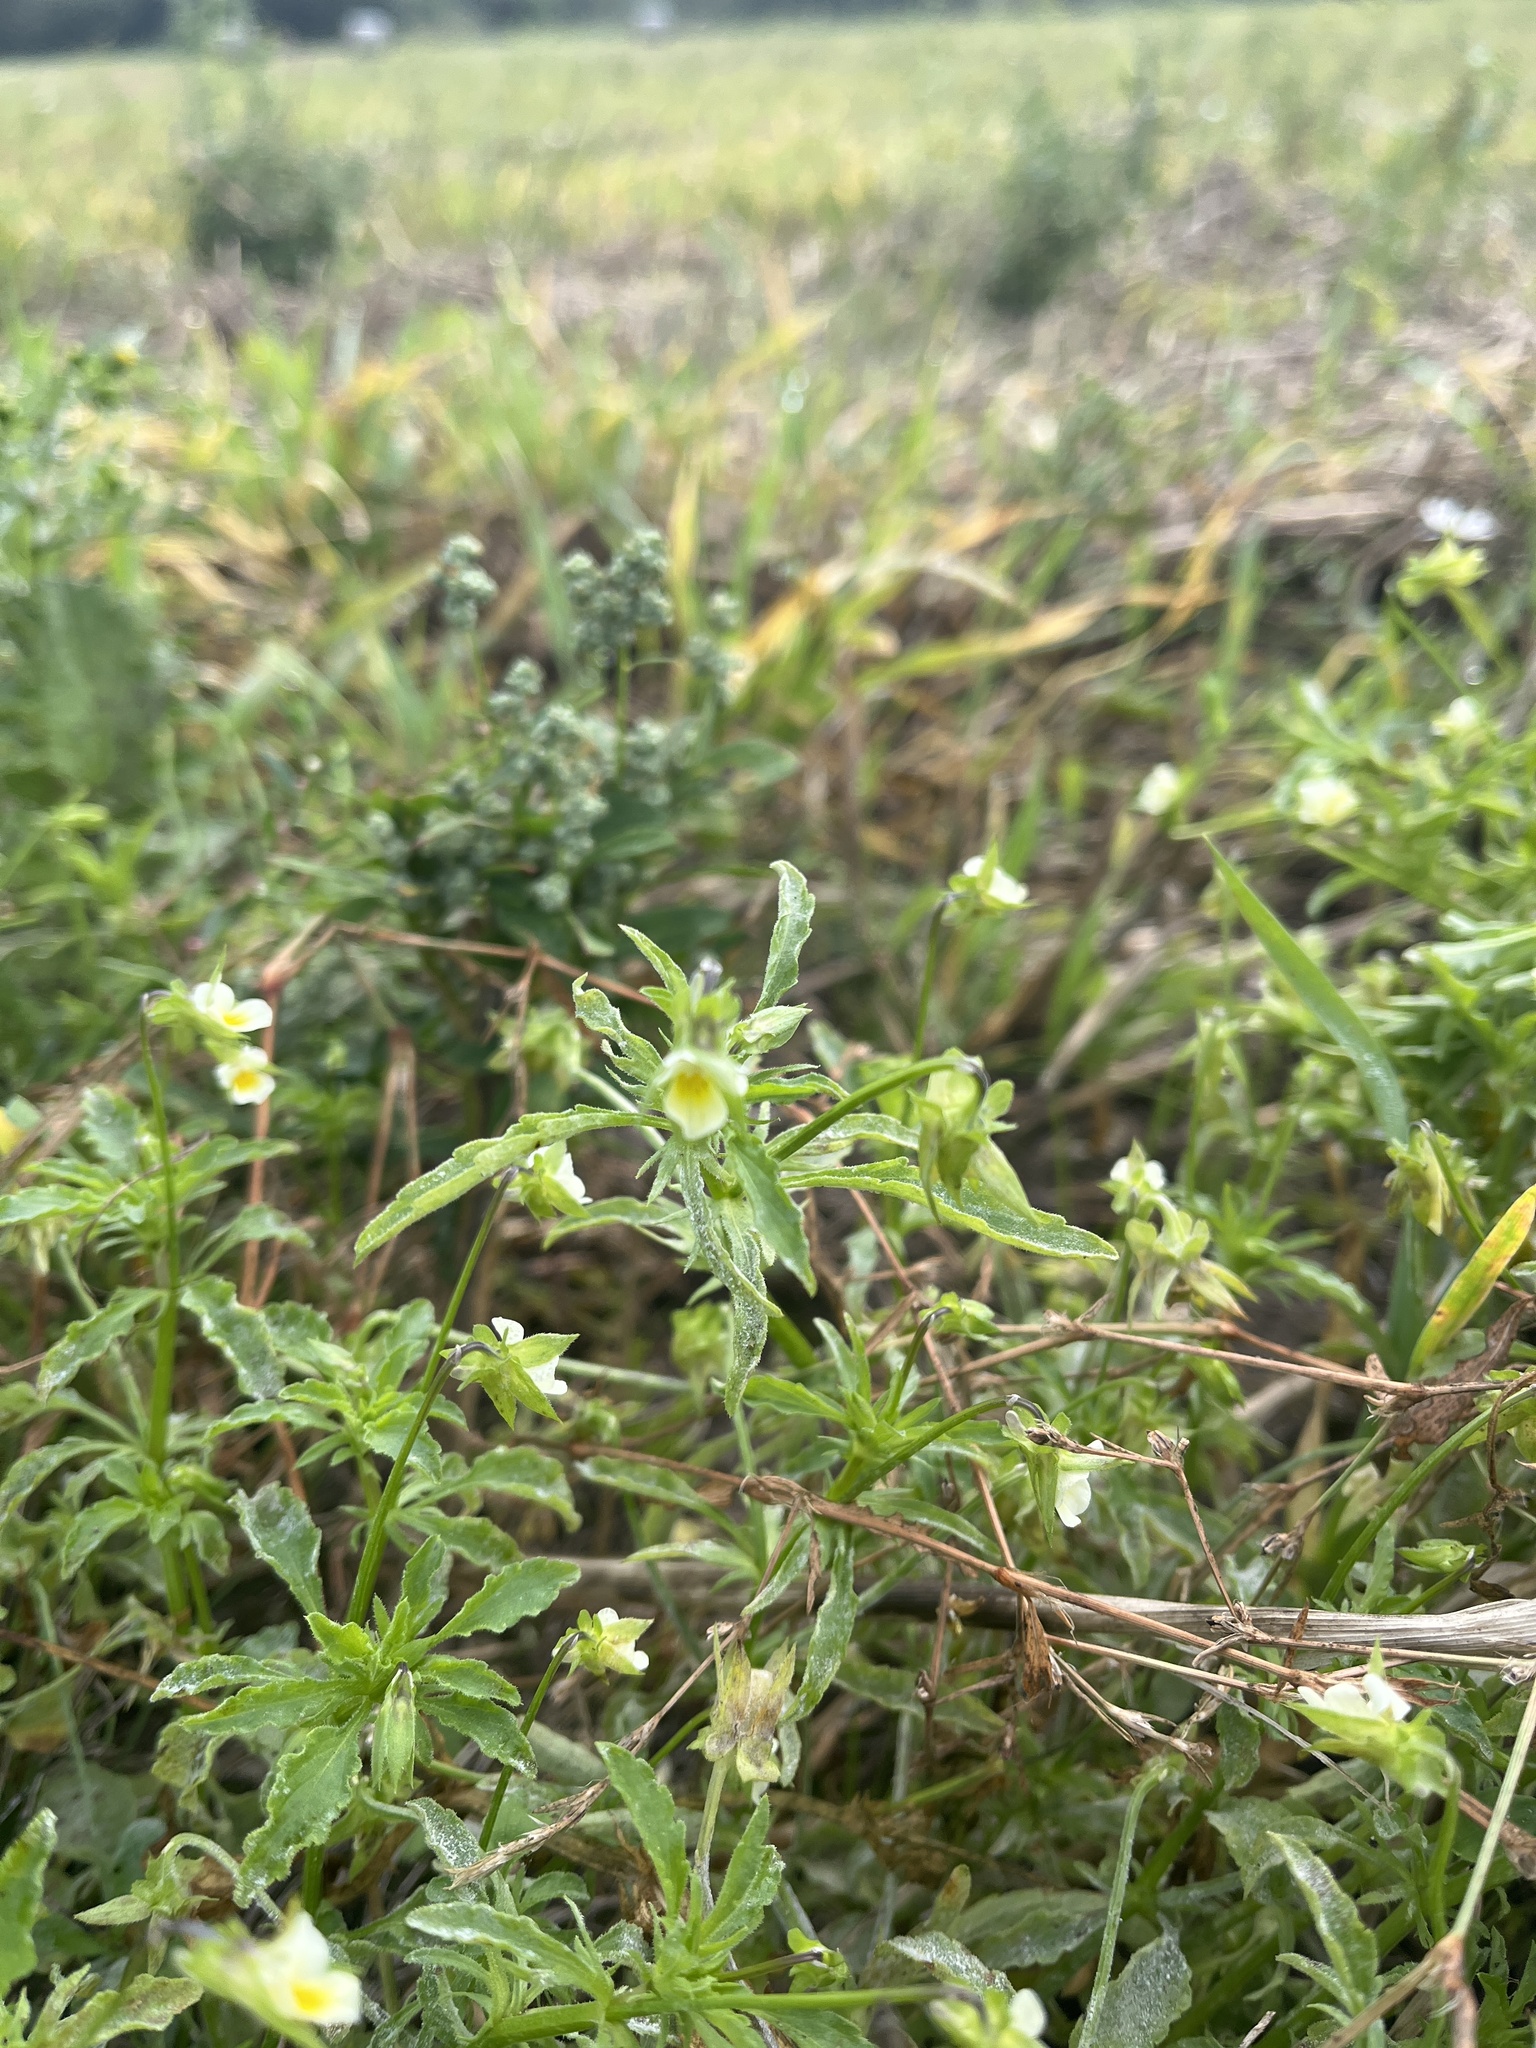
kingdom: Plantae
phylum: Tracheophyta
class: Magnoliopsida
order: Malpighiales
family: Violaceae
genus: Viola
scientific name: Viola arvensis
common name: Field pansy
